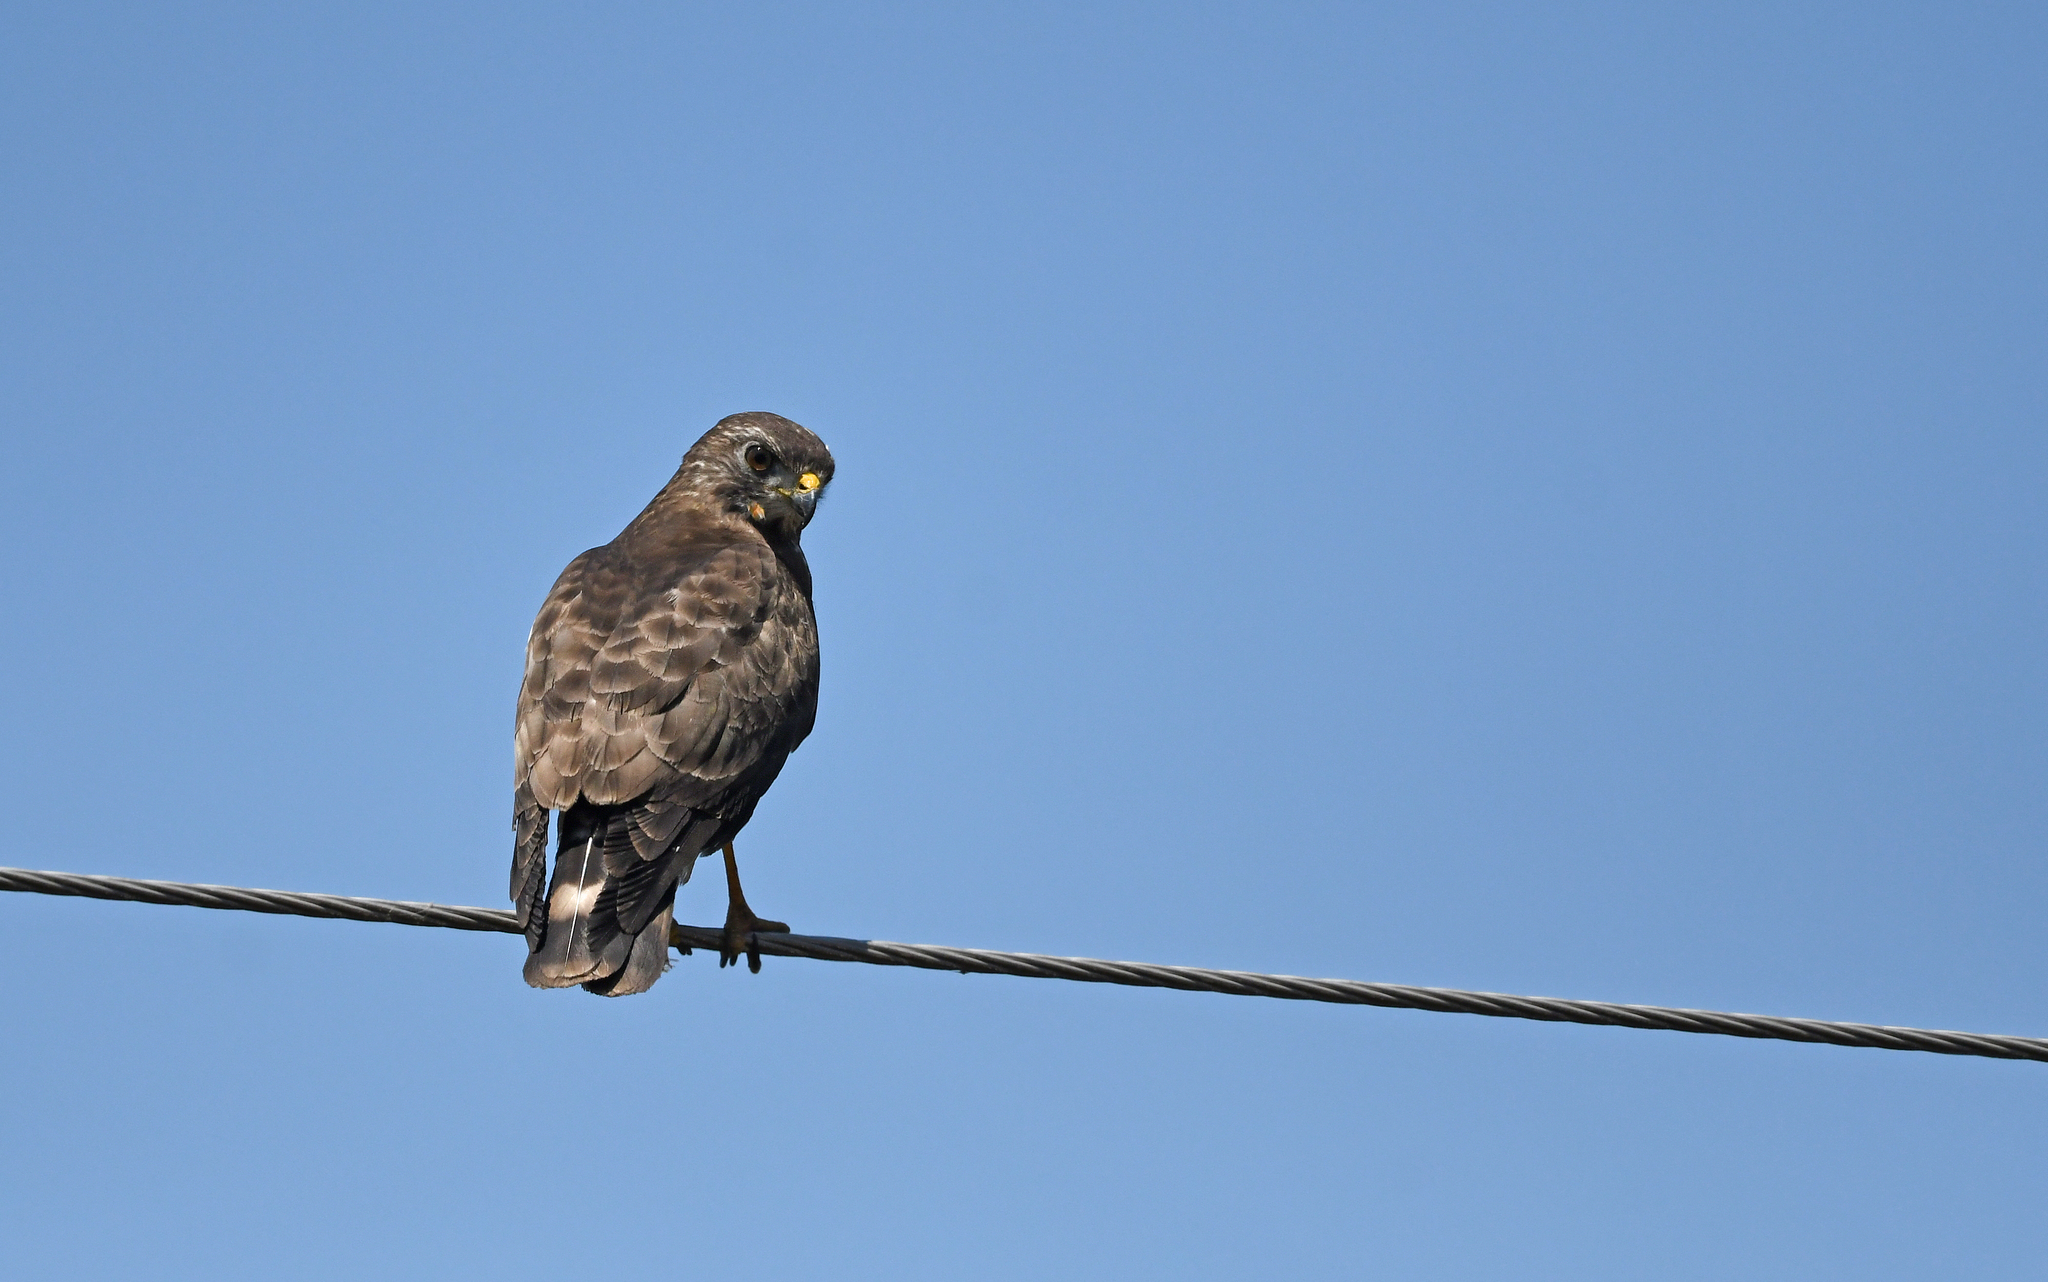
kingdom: Animalia
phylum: Chordata
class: Aves
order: Accipitriformes
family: Accipitridae
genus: Buteo
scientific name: Buteo platypterus
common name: Broad-winged hawk
